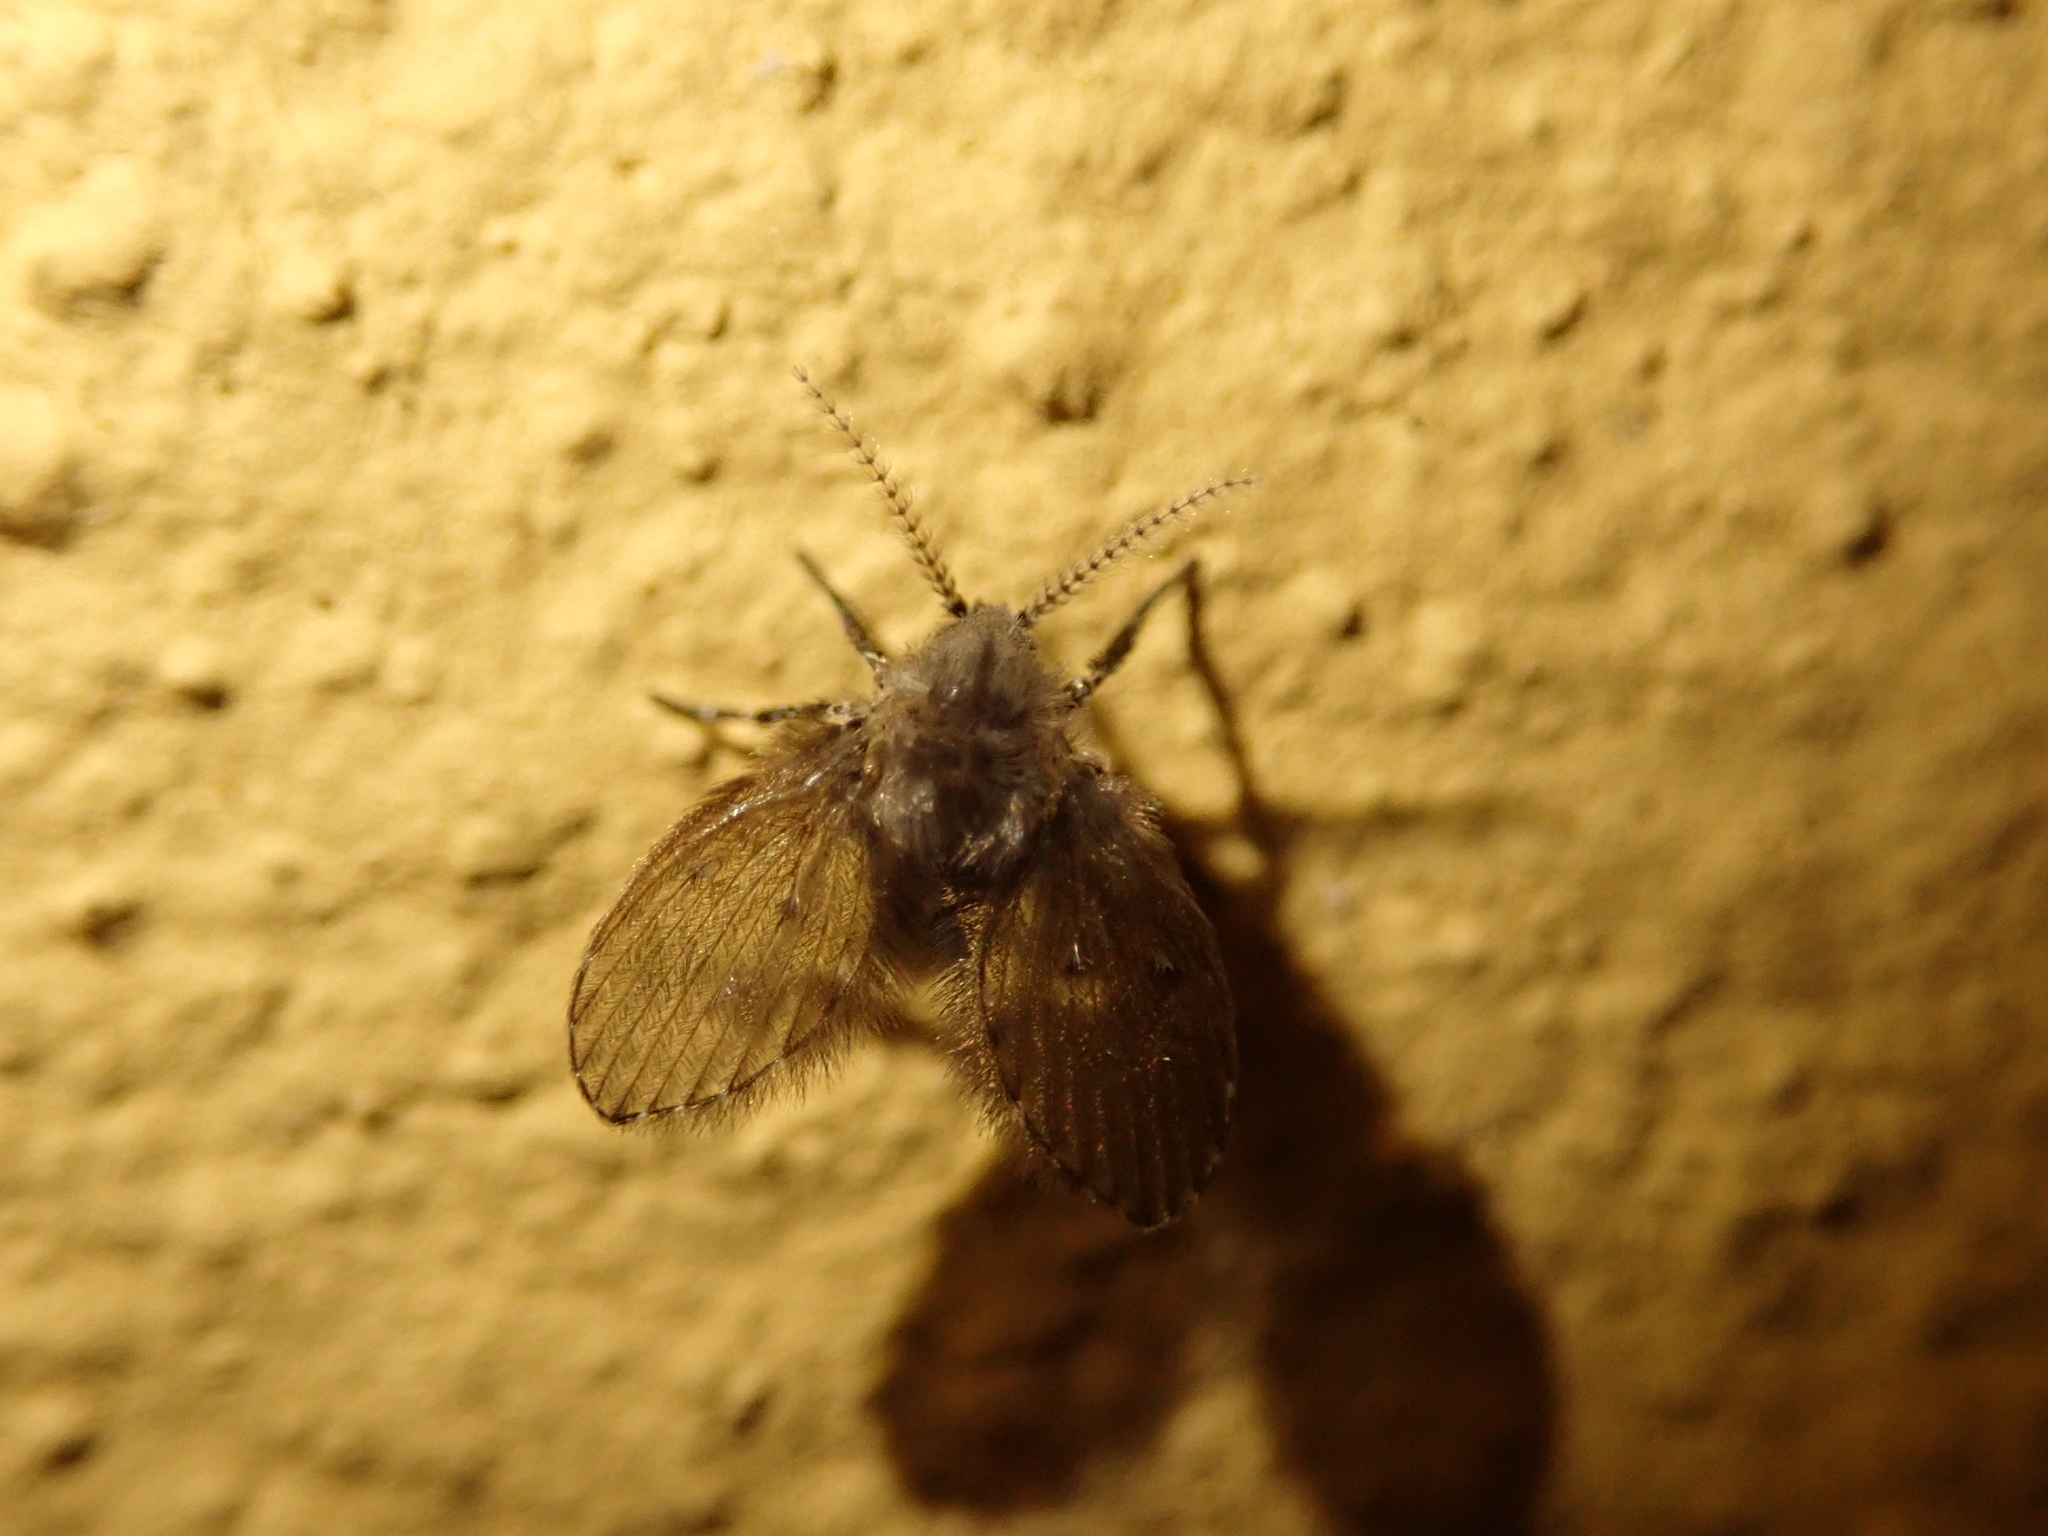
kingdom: Animalia
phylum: Arthropoda
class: Insecta
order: Diptera
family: Psychodidae
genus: Clogmia
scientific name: Clogmia albipunctatus
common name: White-spotted moth fly
